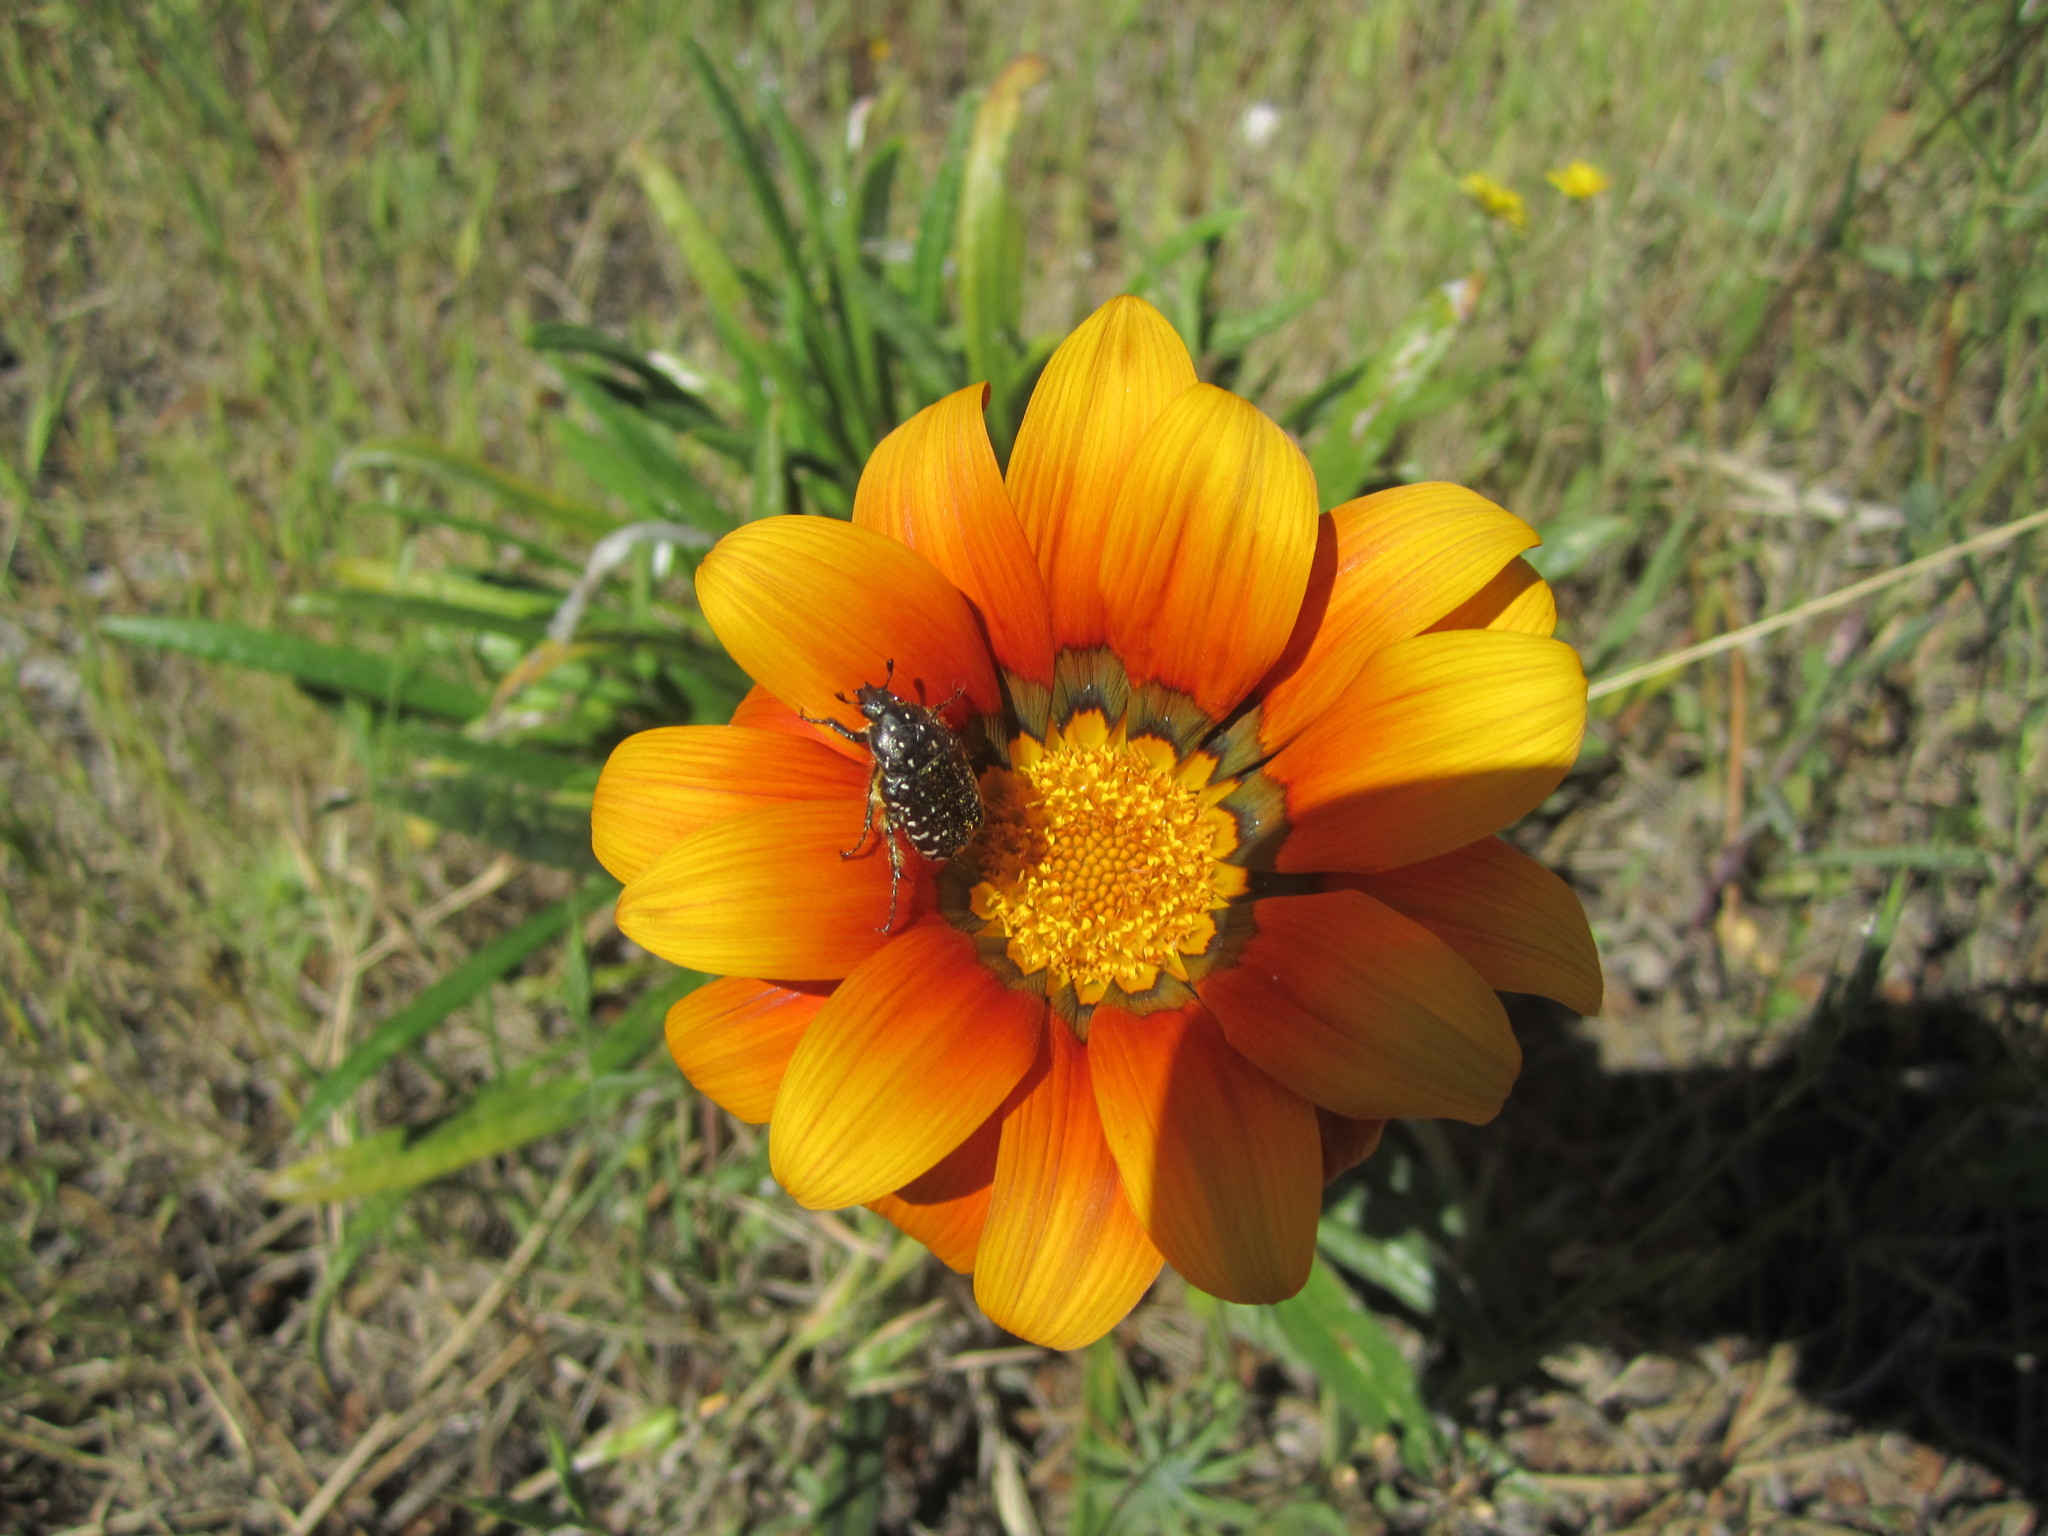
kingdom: Animalia
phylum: Arthropoda
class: Insecta
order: Coleoptera
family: Scarabaeidae
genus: Oxythyrea
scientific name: Oxythyrea funesta
